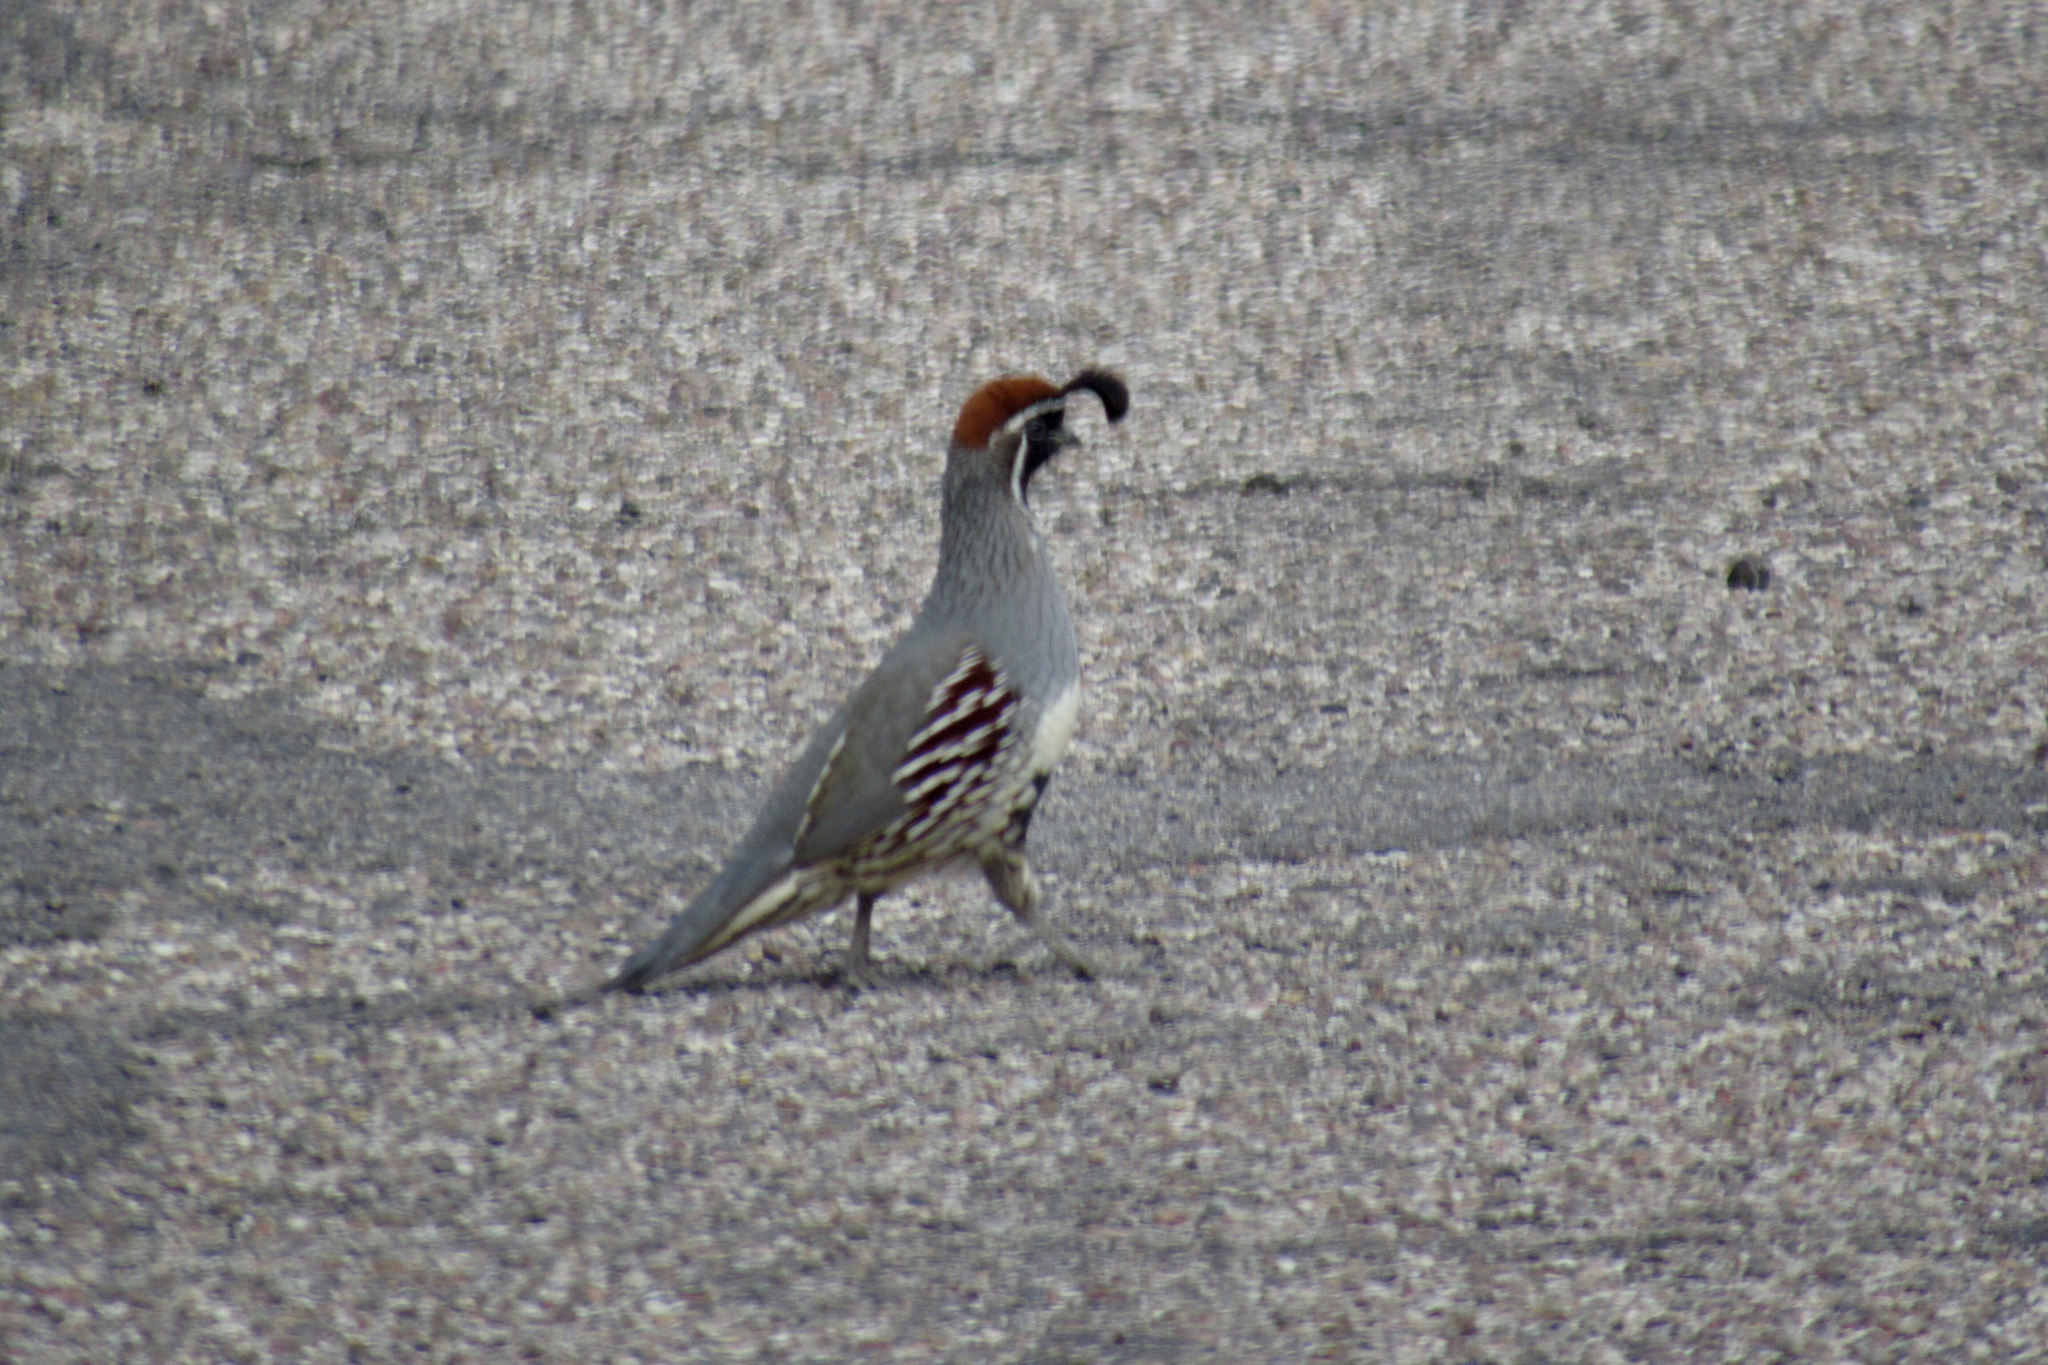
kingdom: Animalia
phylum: Chordata
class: Aves
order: Galliformes
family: Odontophoridae
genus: Callipepla
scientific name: Callipepla gambelii
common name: Gambel's quail
